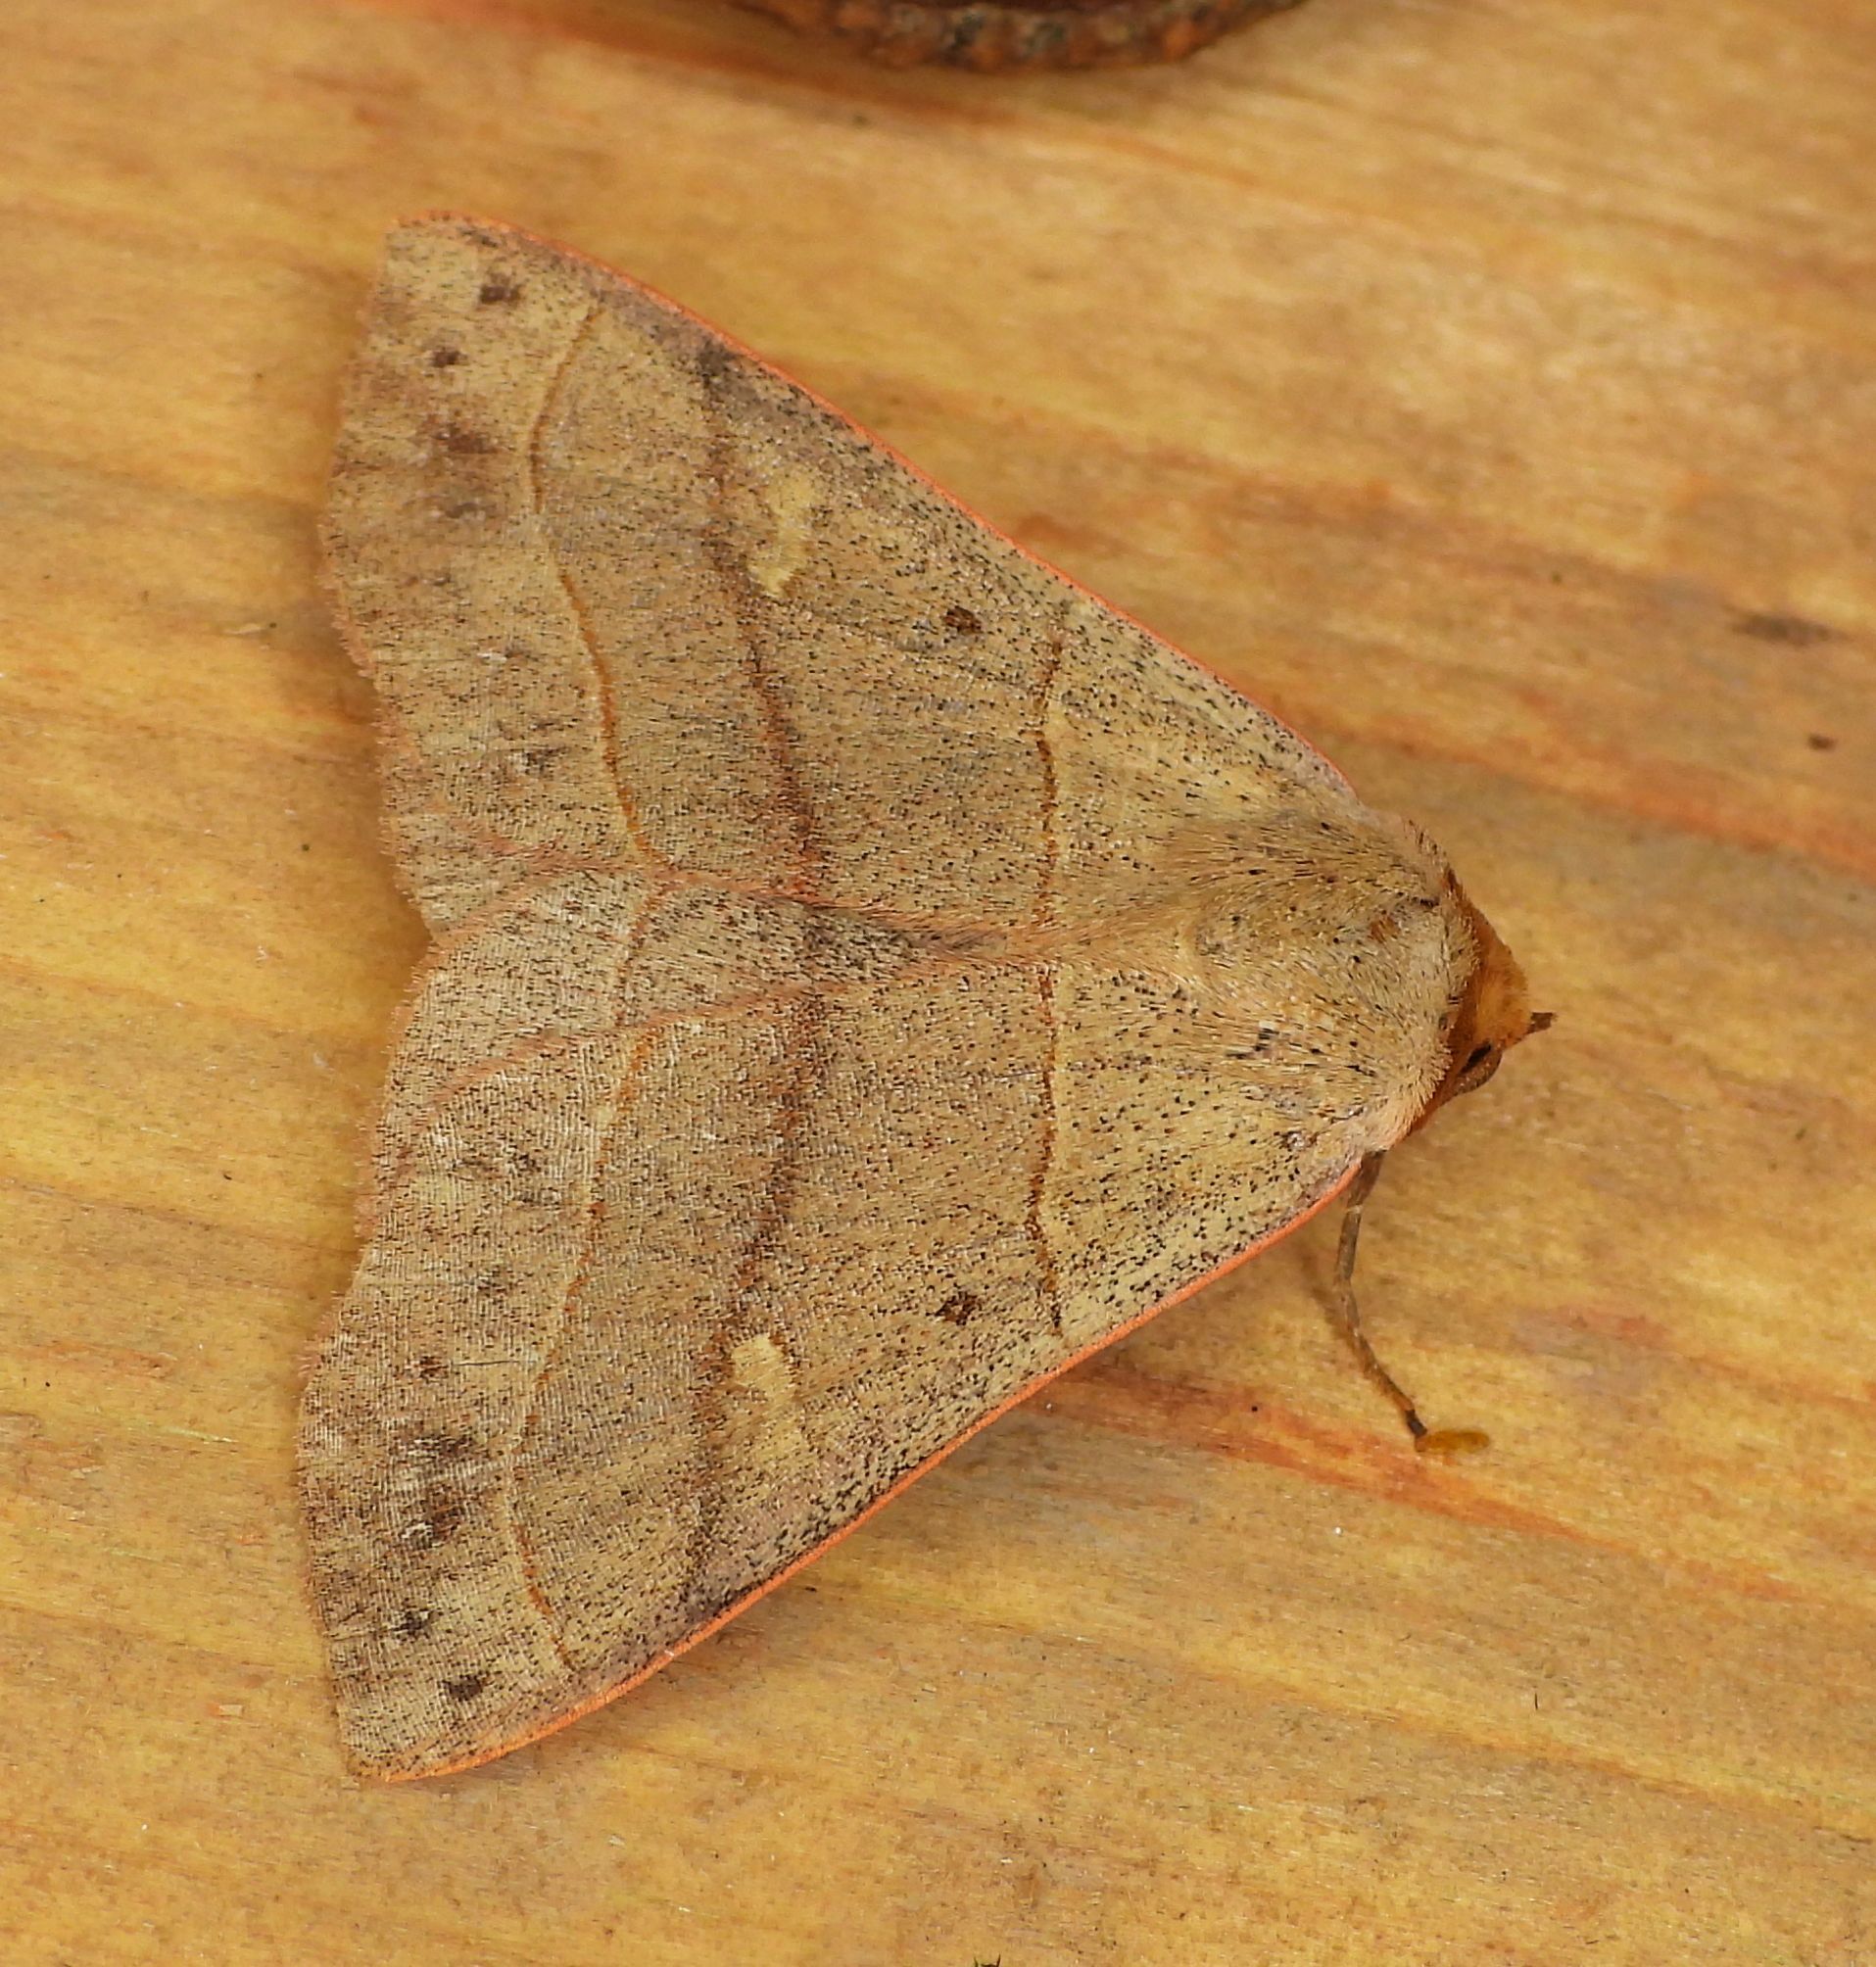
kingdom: Animalia
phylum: Arthropoda
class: Insecta
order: Lepidoptera
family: Erebidae
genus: Panopoda
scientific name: Panopoda rufimargo
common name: Red-lined panopoda moth
